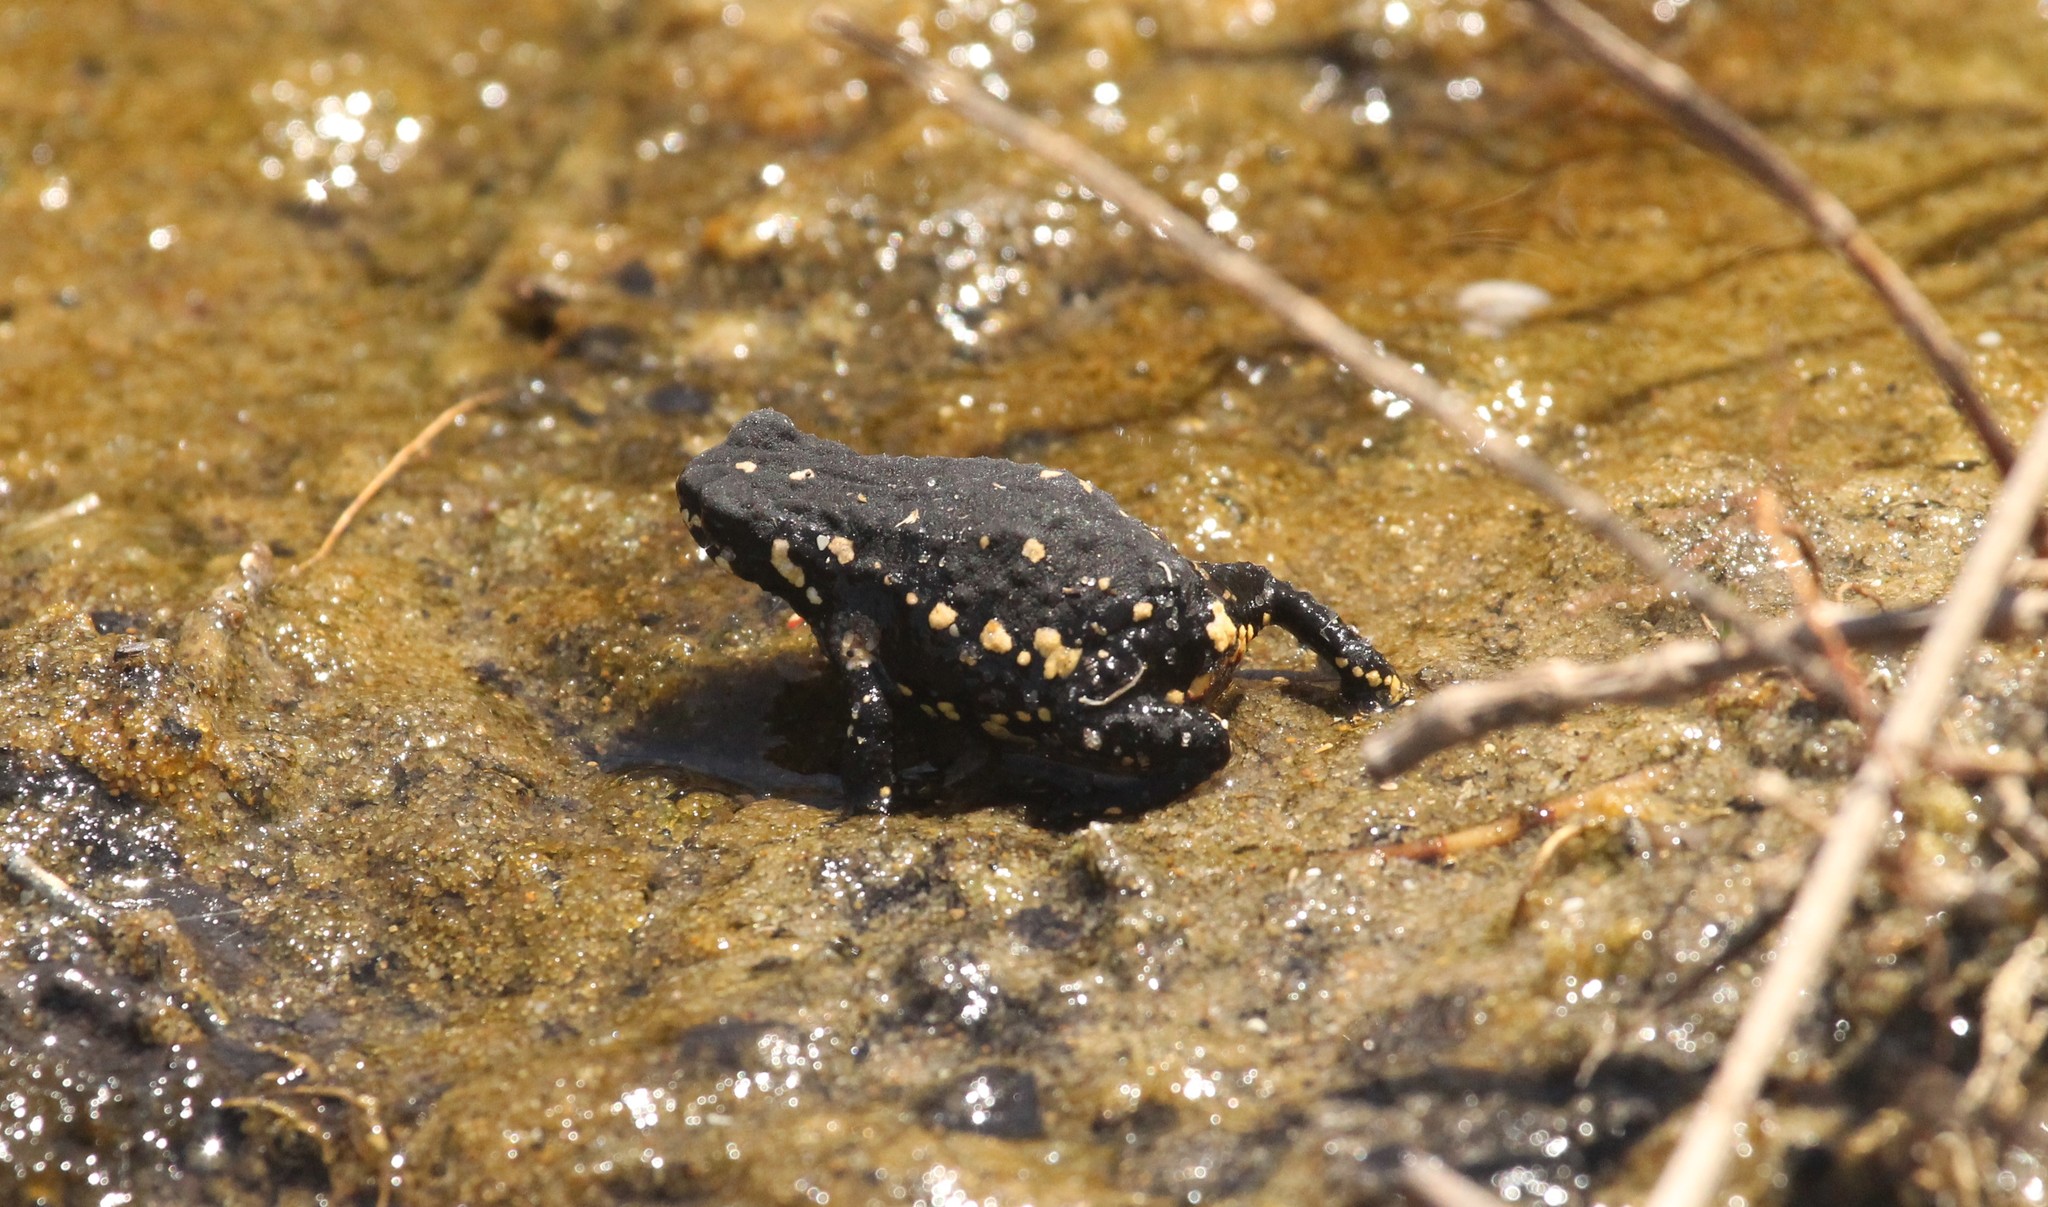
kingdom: Animalia
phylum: Chordata
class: Amphibia
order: Anura
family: Bufonidae
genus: Melanophryniscus
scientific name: Melanophryniscus montevidensis
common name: Montevideo redbelly toad
